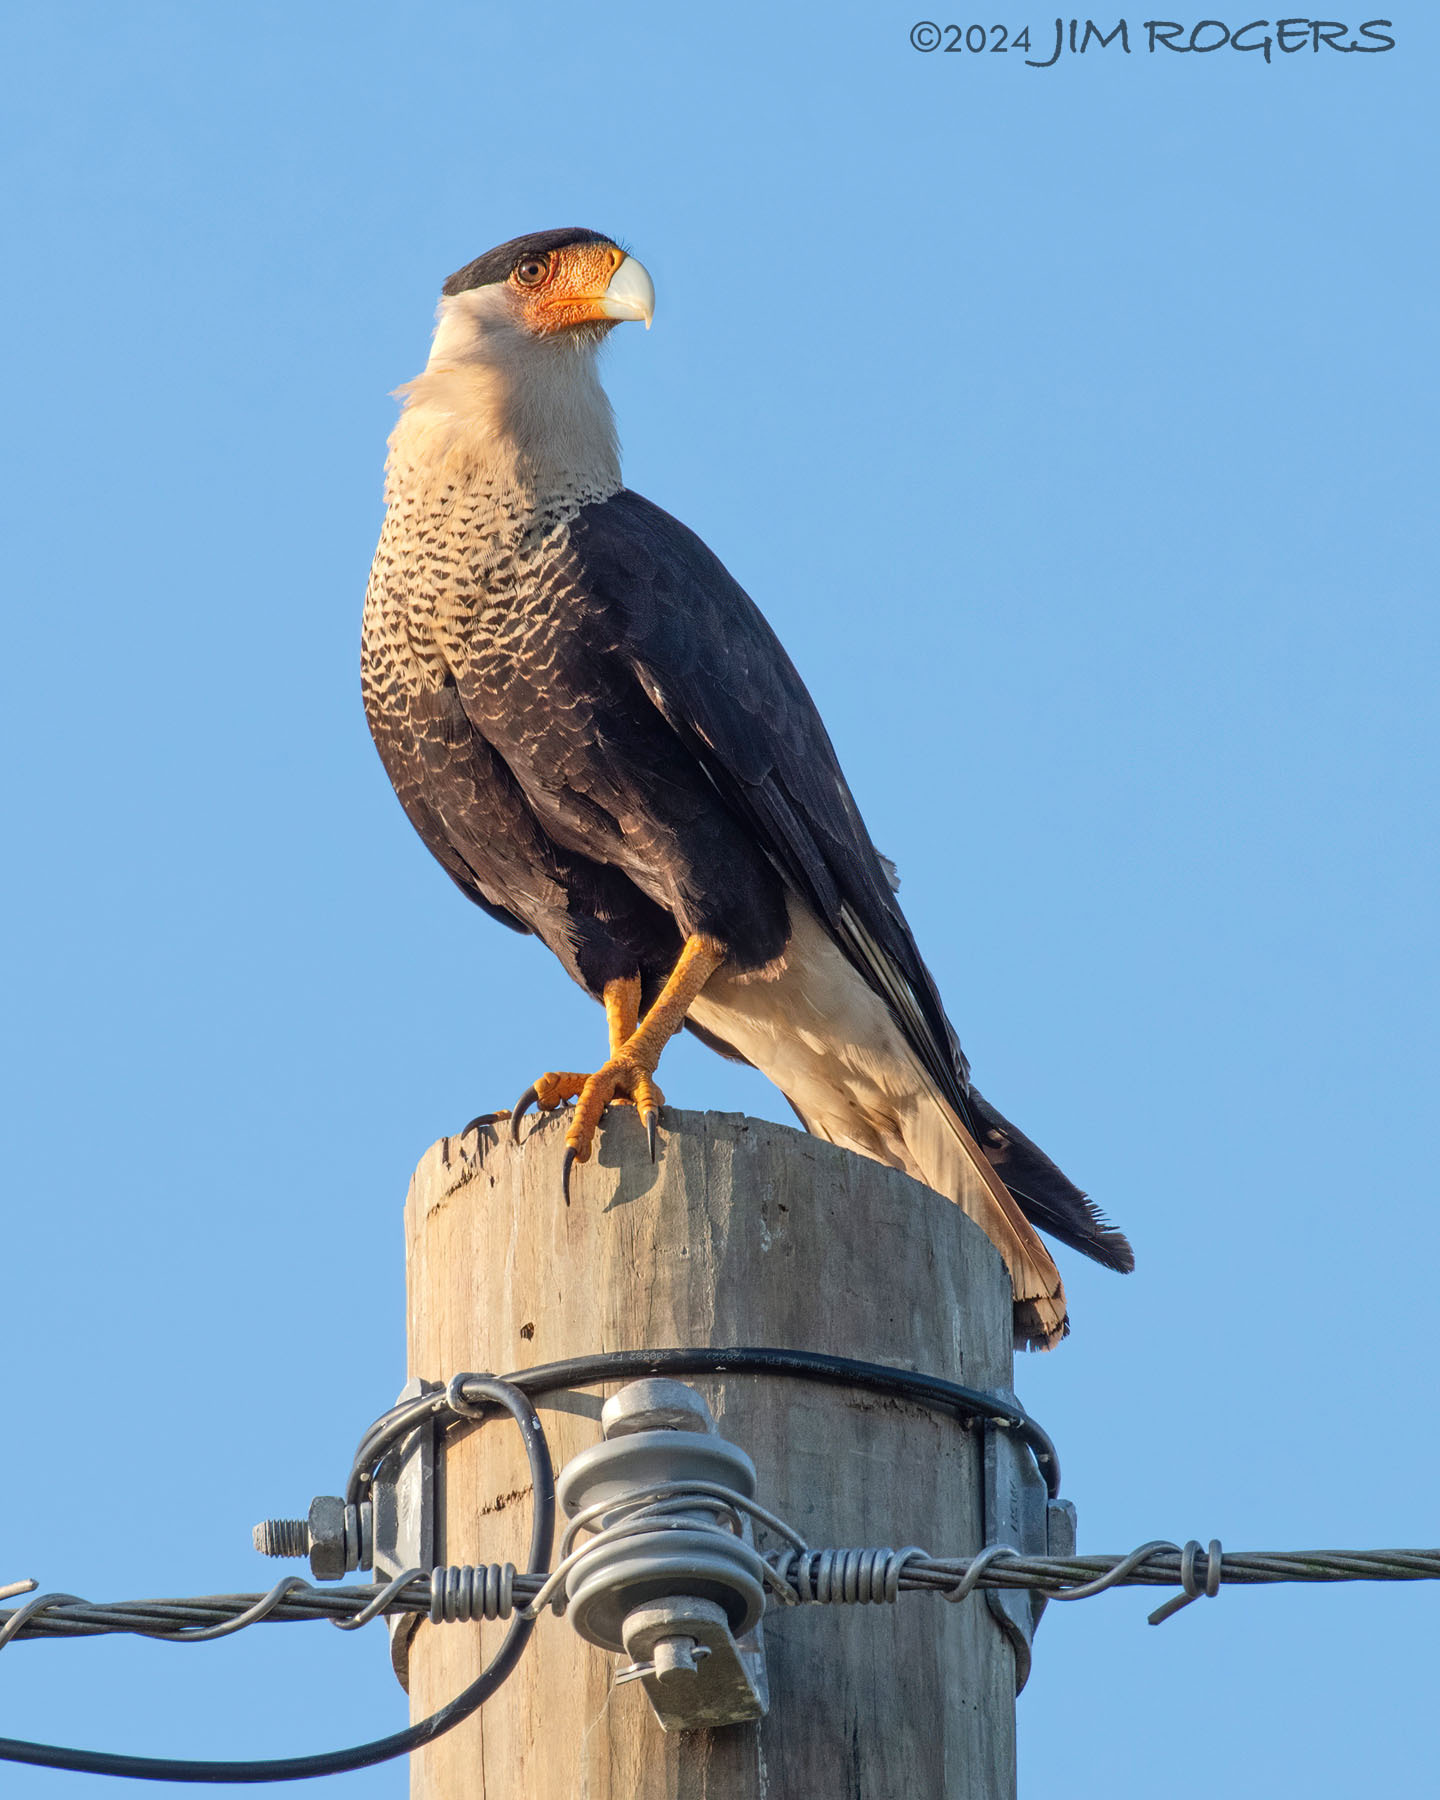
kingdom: Animalia
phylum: Chordata
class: Aves
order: Falconiformes
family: Falconidae
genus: Caracara
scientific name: Caracara plancus
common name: Southern caracara
